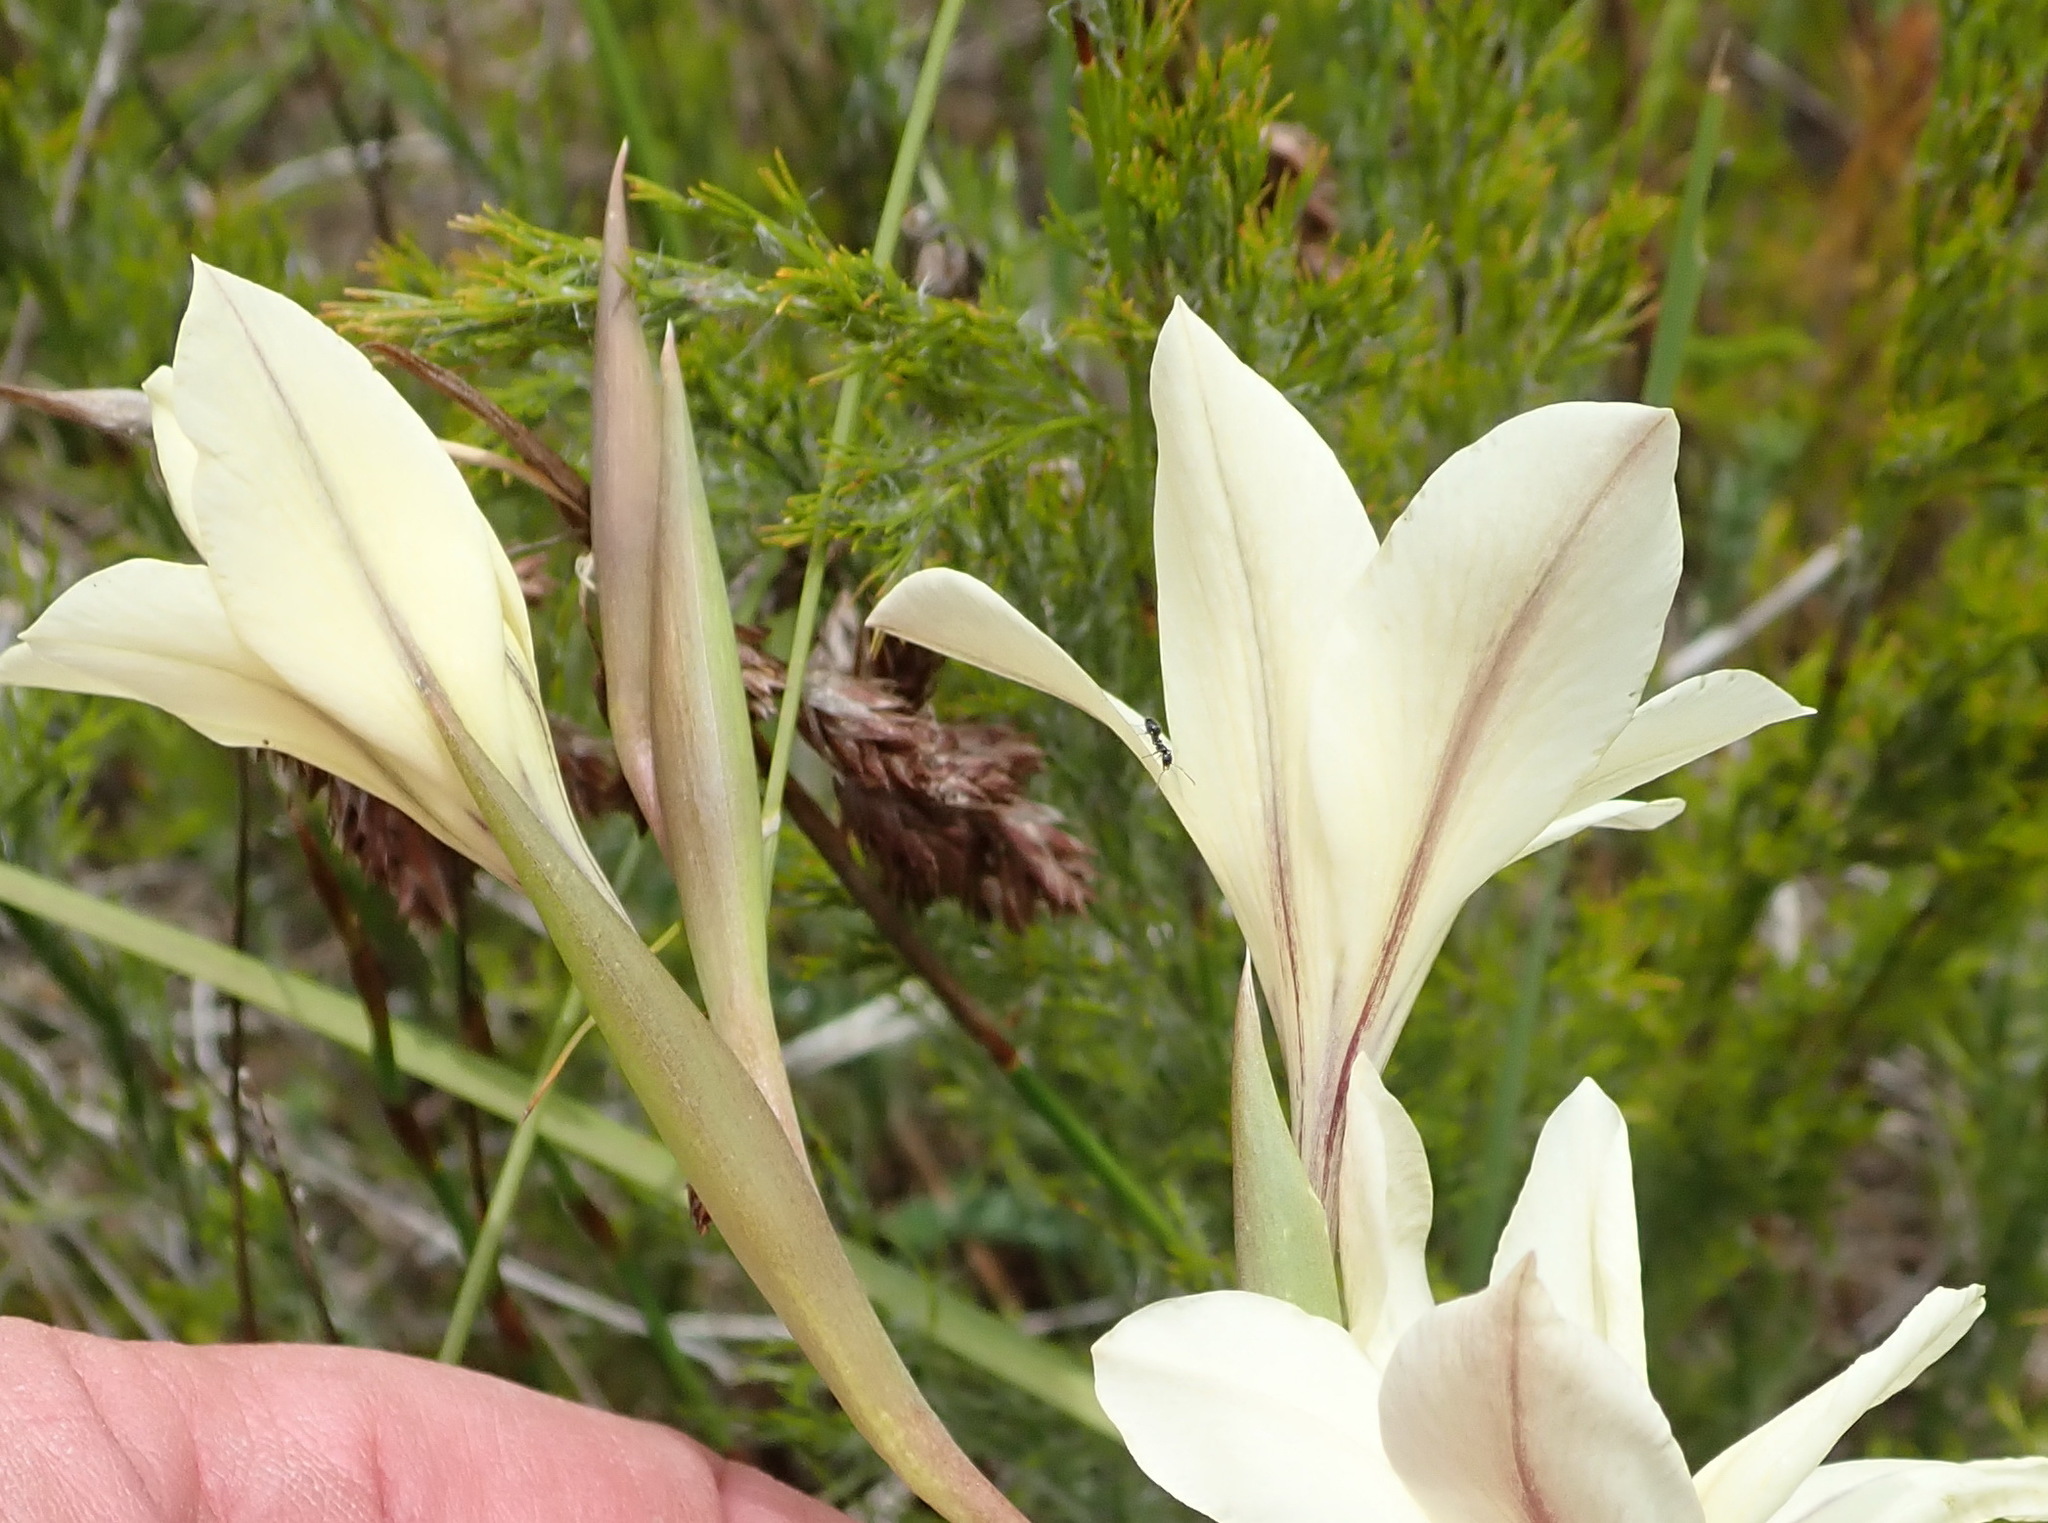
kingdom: Plantae
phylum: Tracheophyta
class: Liliopsida
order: Asparagales
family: Iridaceae
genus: Gladiolus
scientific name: Gladiolus floribundus
